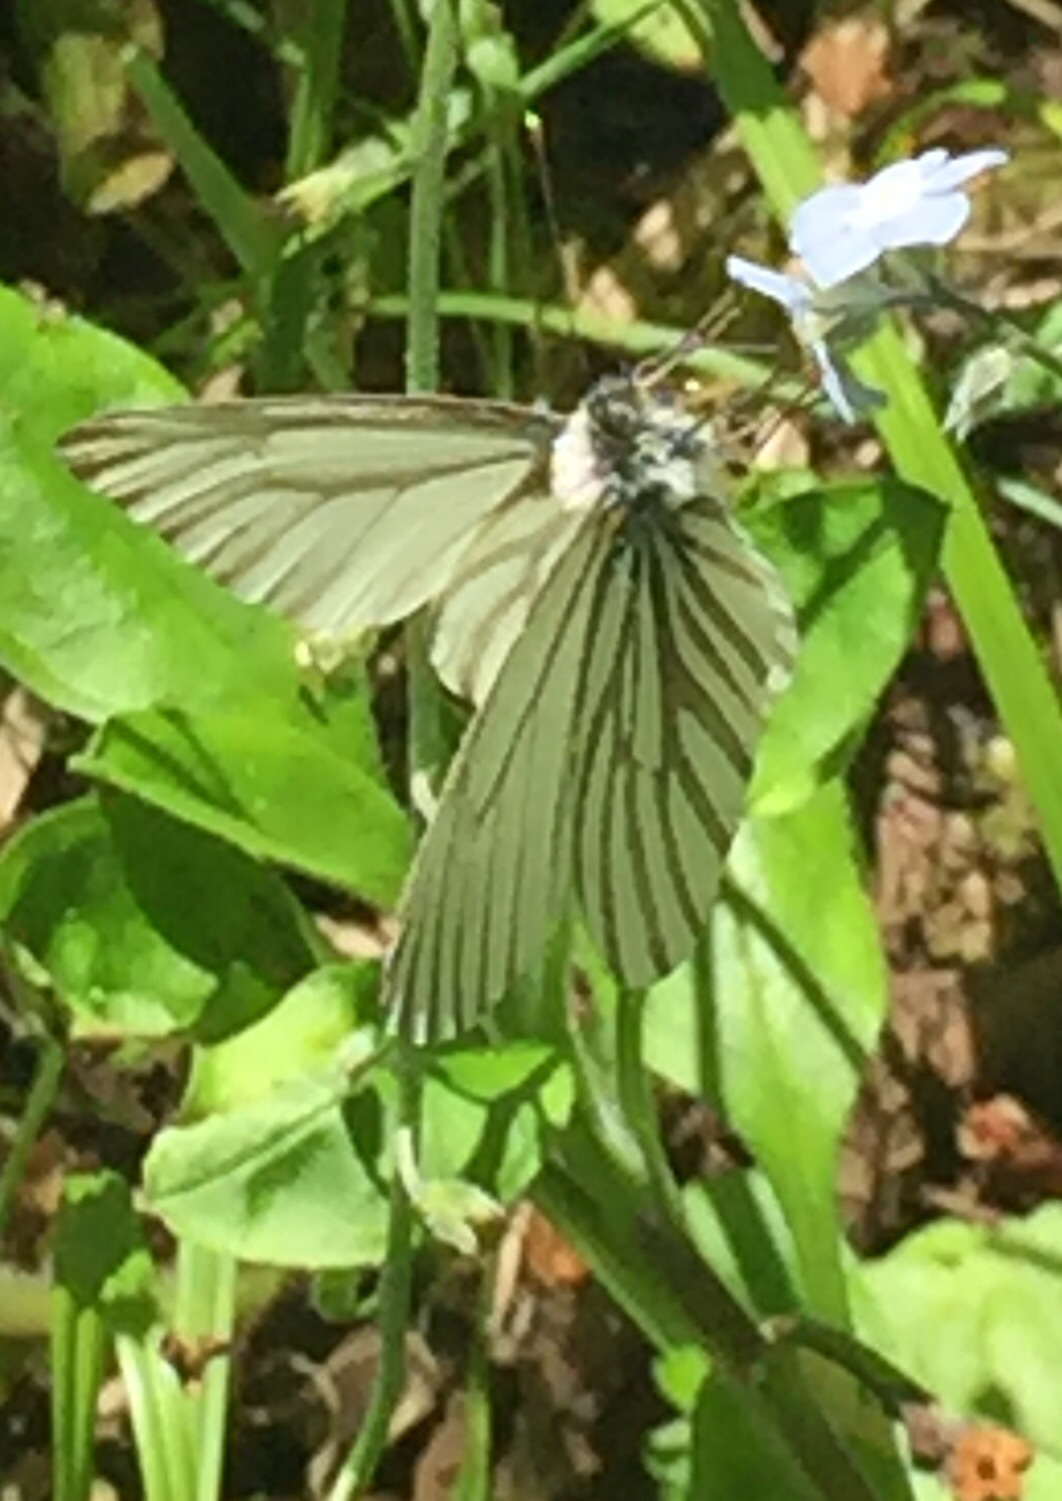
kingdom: Animalia
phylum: Arthropoda
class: Insecta
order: Lepidoptera
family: Pieridae
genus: Pieris
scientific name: Pieris marginalis
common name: Margined white
